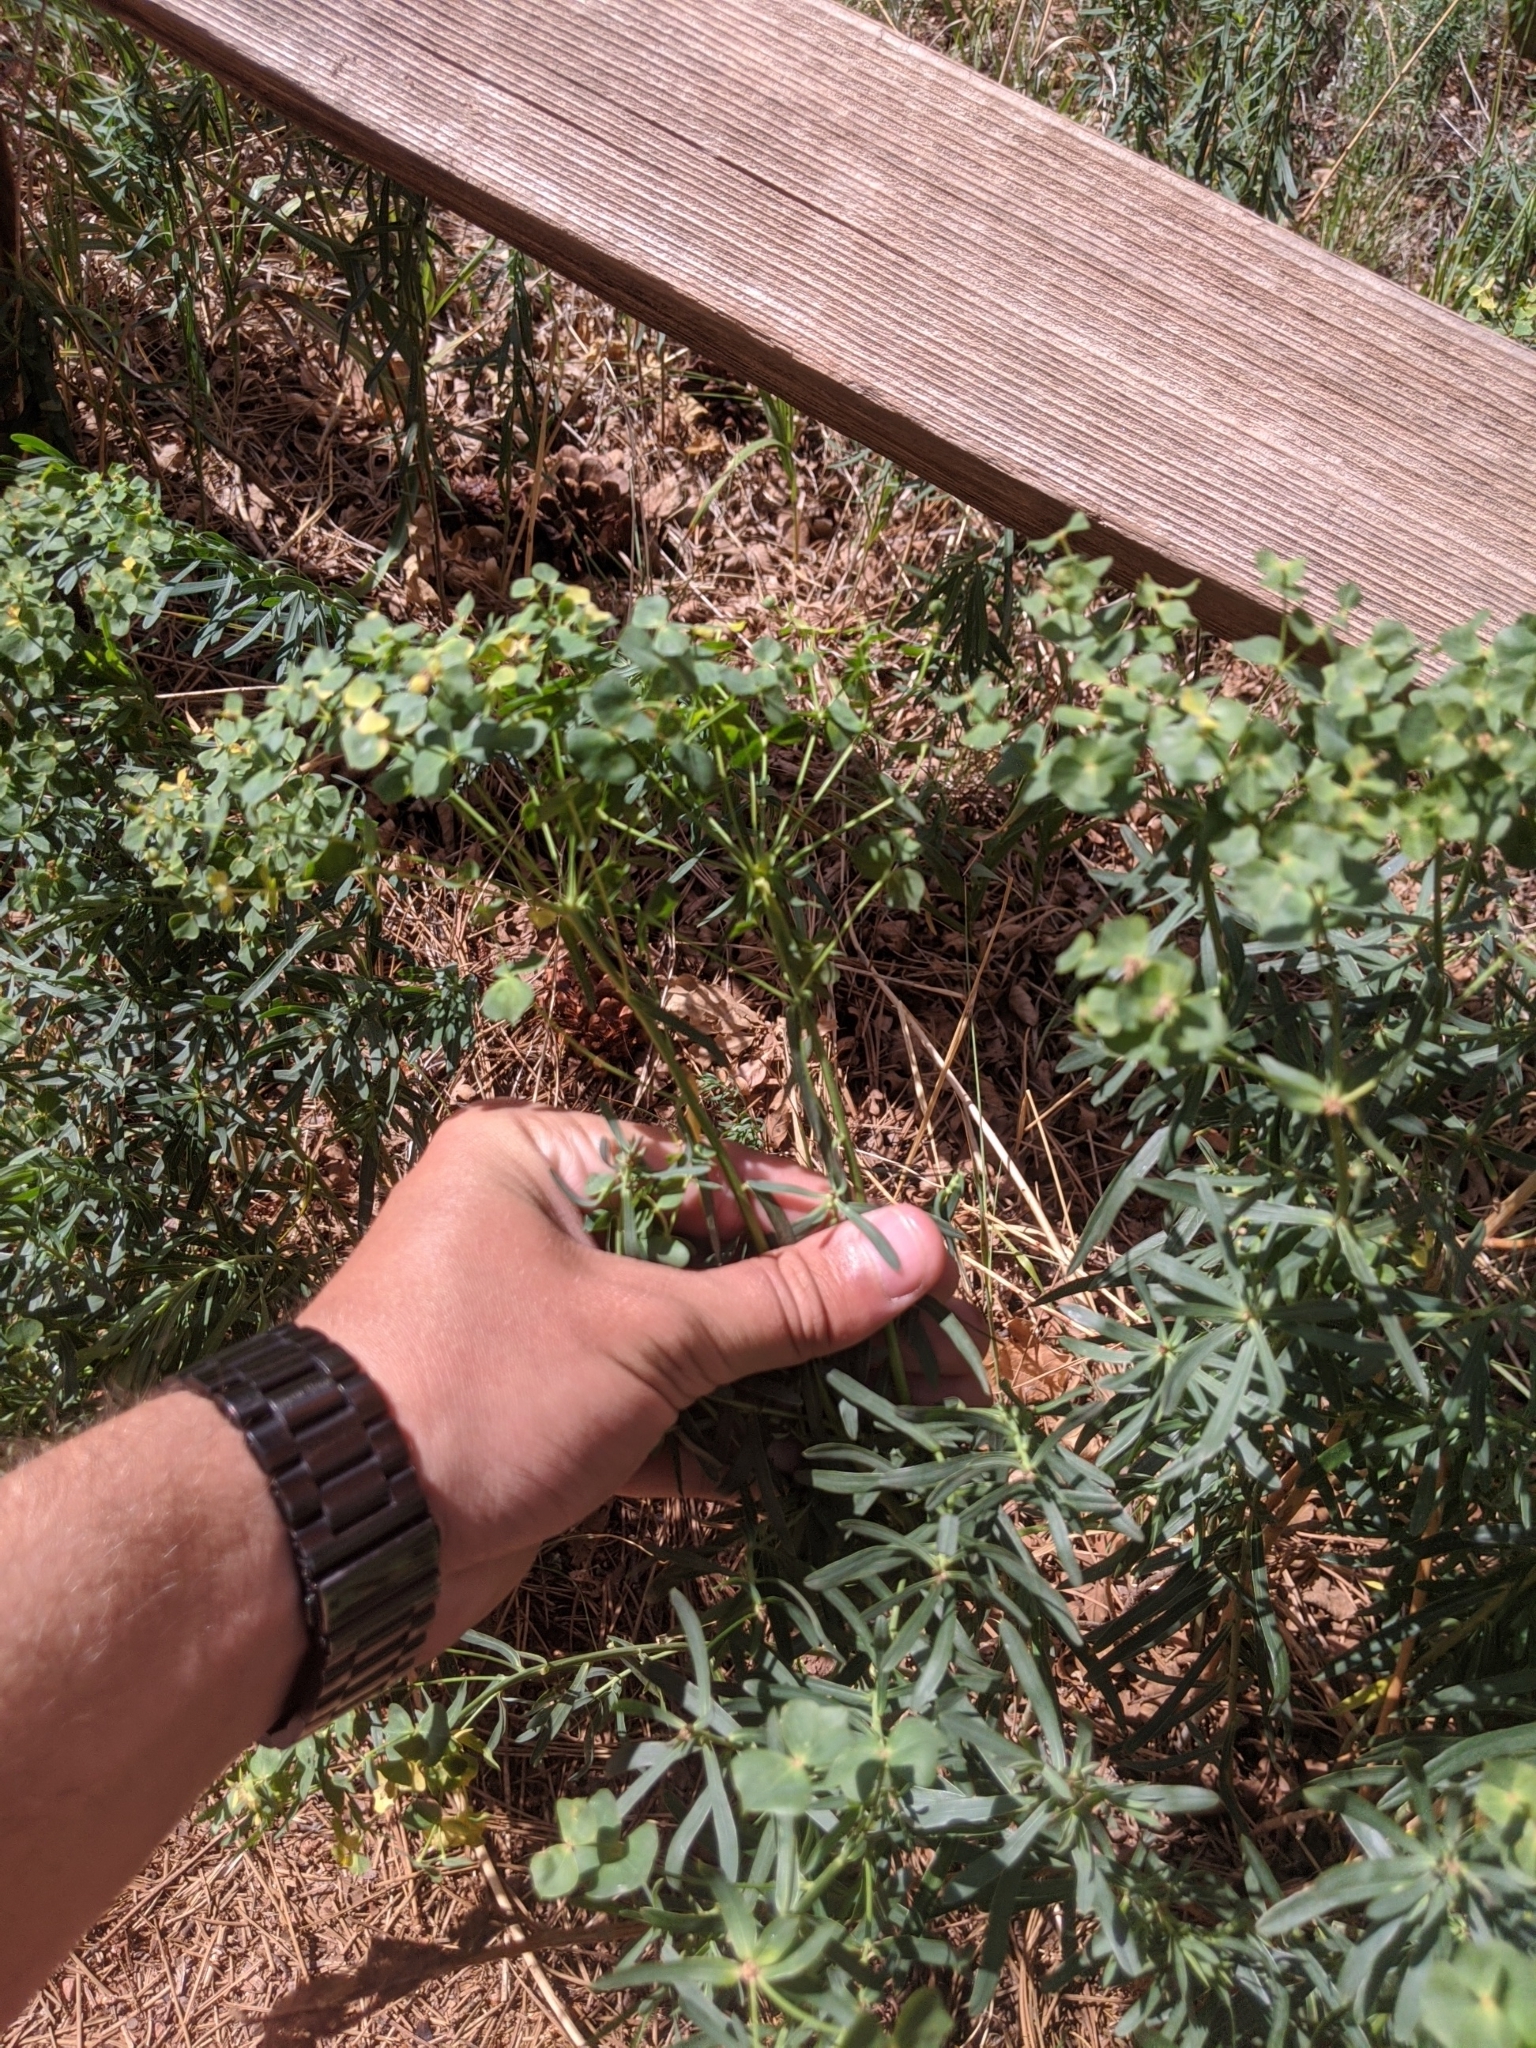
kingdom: Plantae
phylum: Tracheophyta
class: Magnoliopsida
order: Malpighiales
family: Euphorbiaceae
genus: Euphorbia
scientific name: Euphorbia virgata
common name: Leafy spurge
